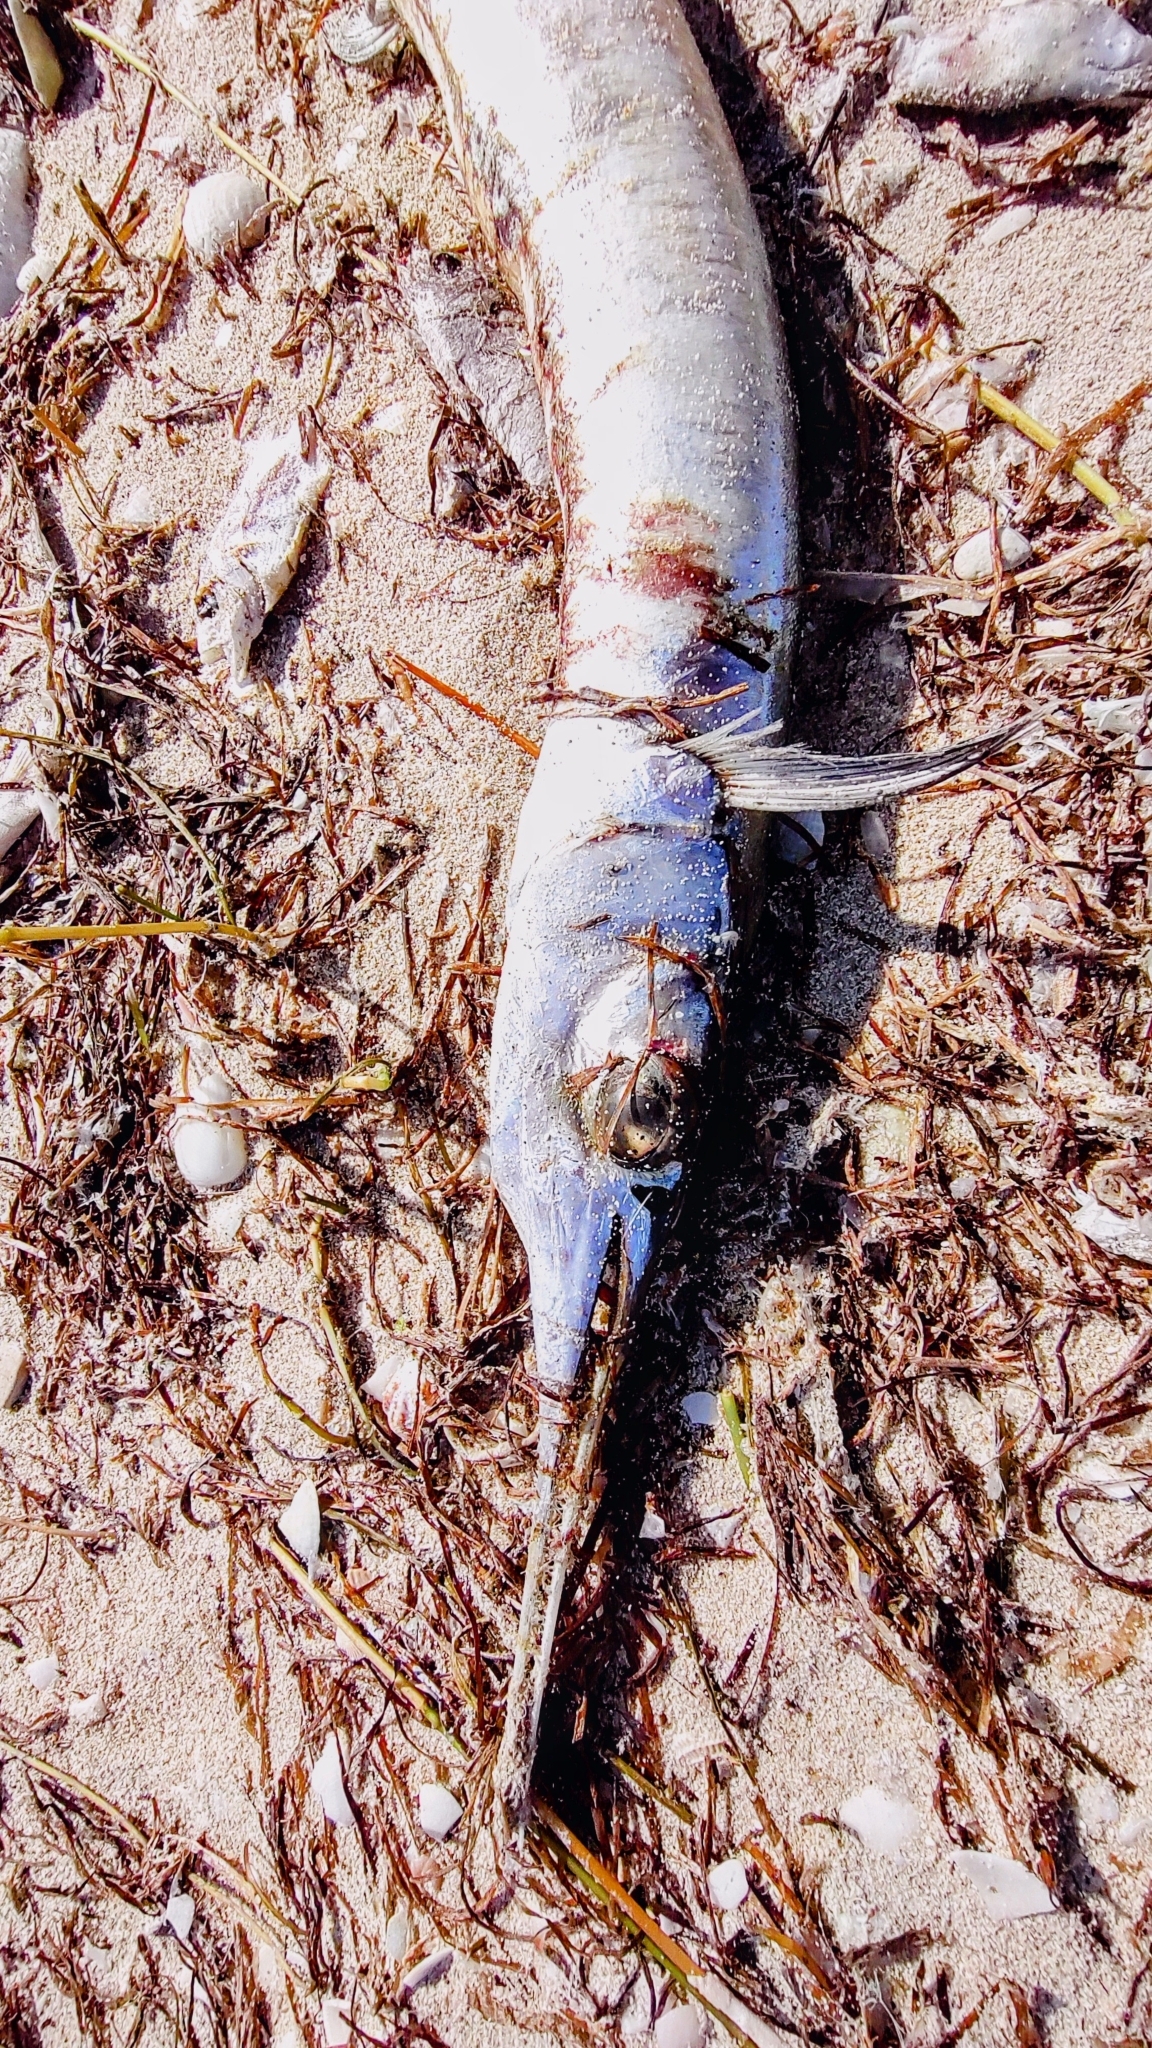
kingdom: Animalia
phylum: Chordata
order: Beloniformes
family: Belonidae
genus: Tylosurus
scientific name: Tylosurus crocodilus
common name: Houndfish
